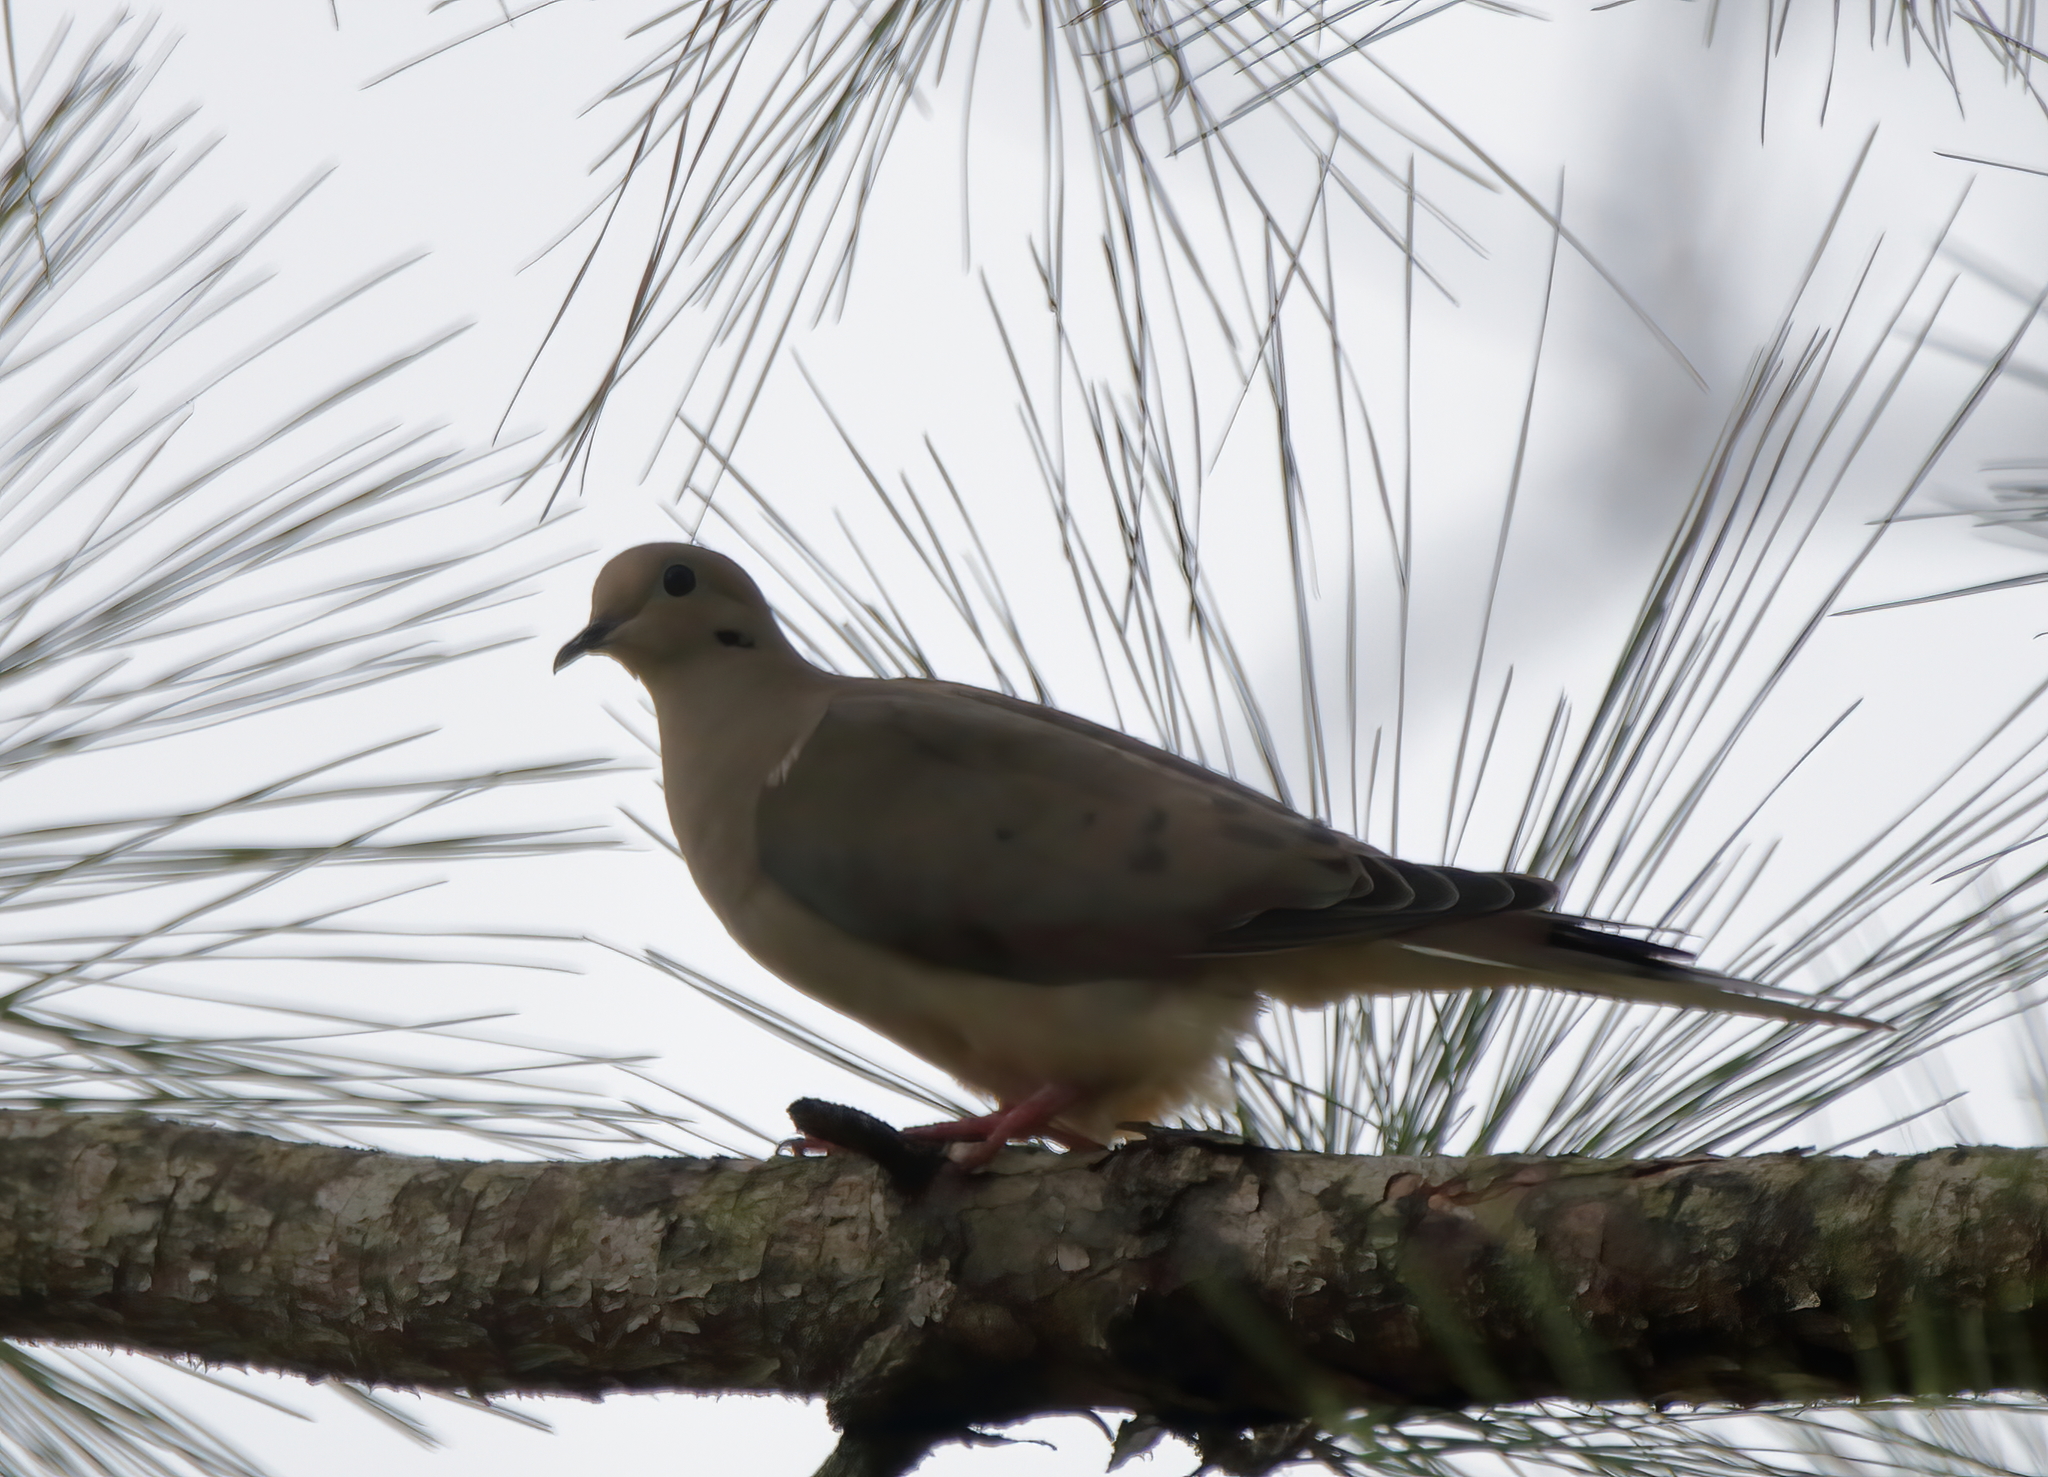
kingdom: Animalia
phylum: Chordata
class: Aves
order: Columbiformes
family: Columbidae
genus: Zenaida
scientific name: Zenaida macroura
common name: Mourning dove
